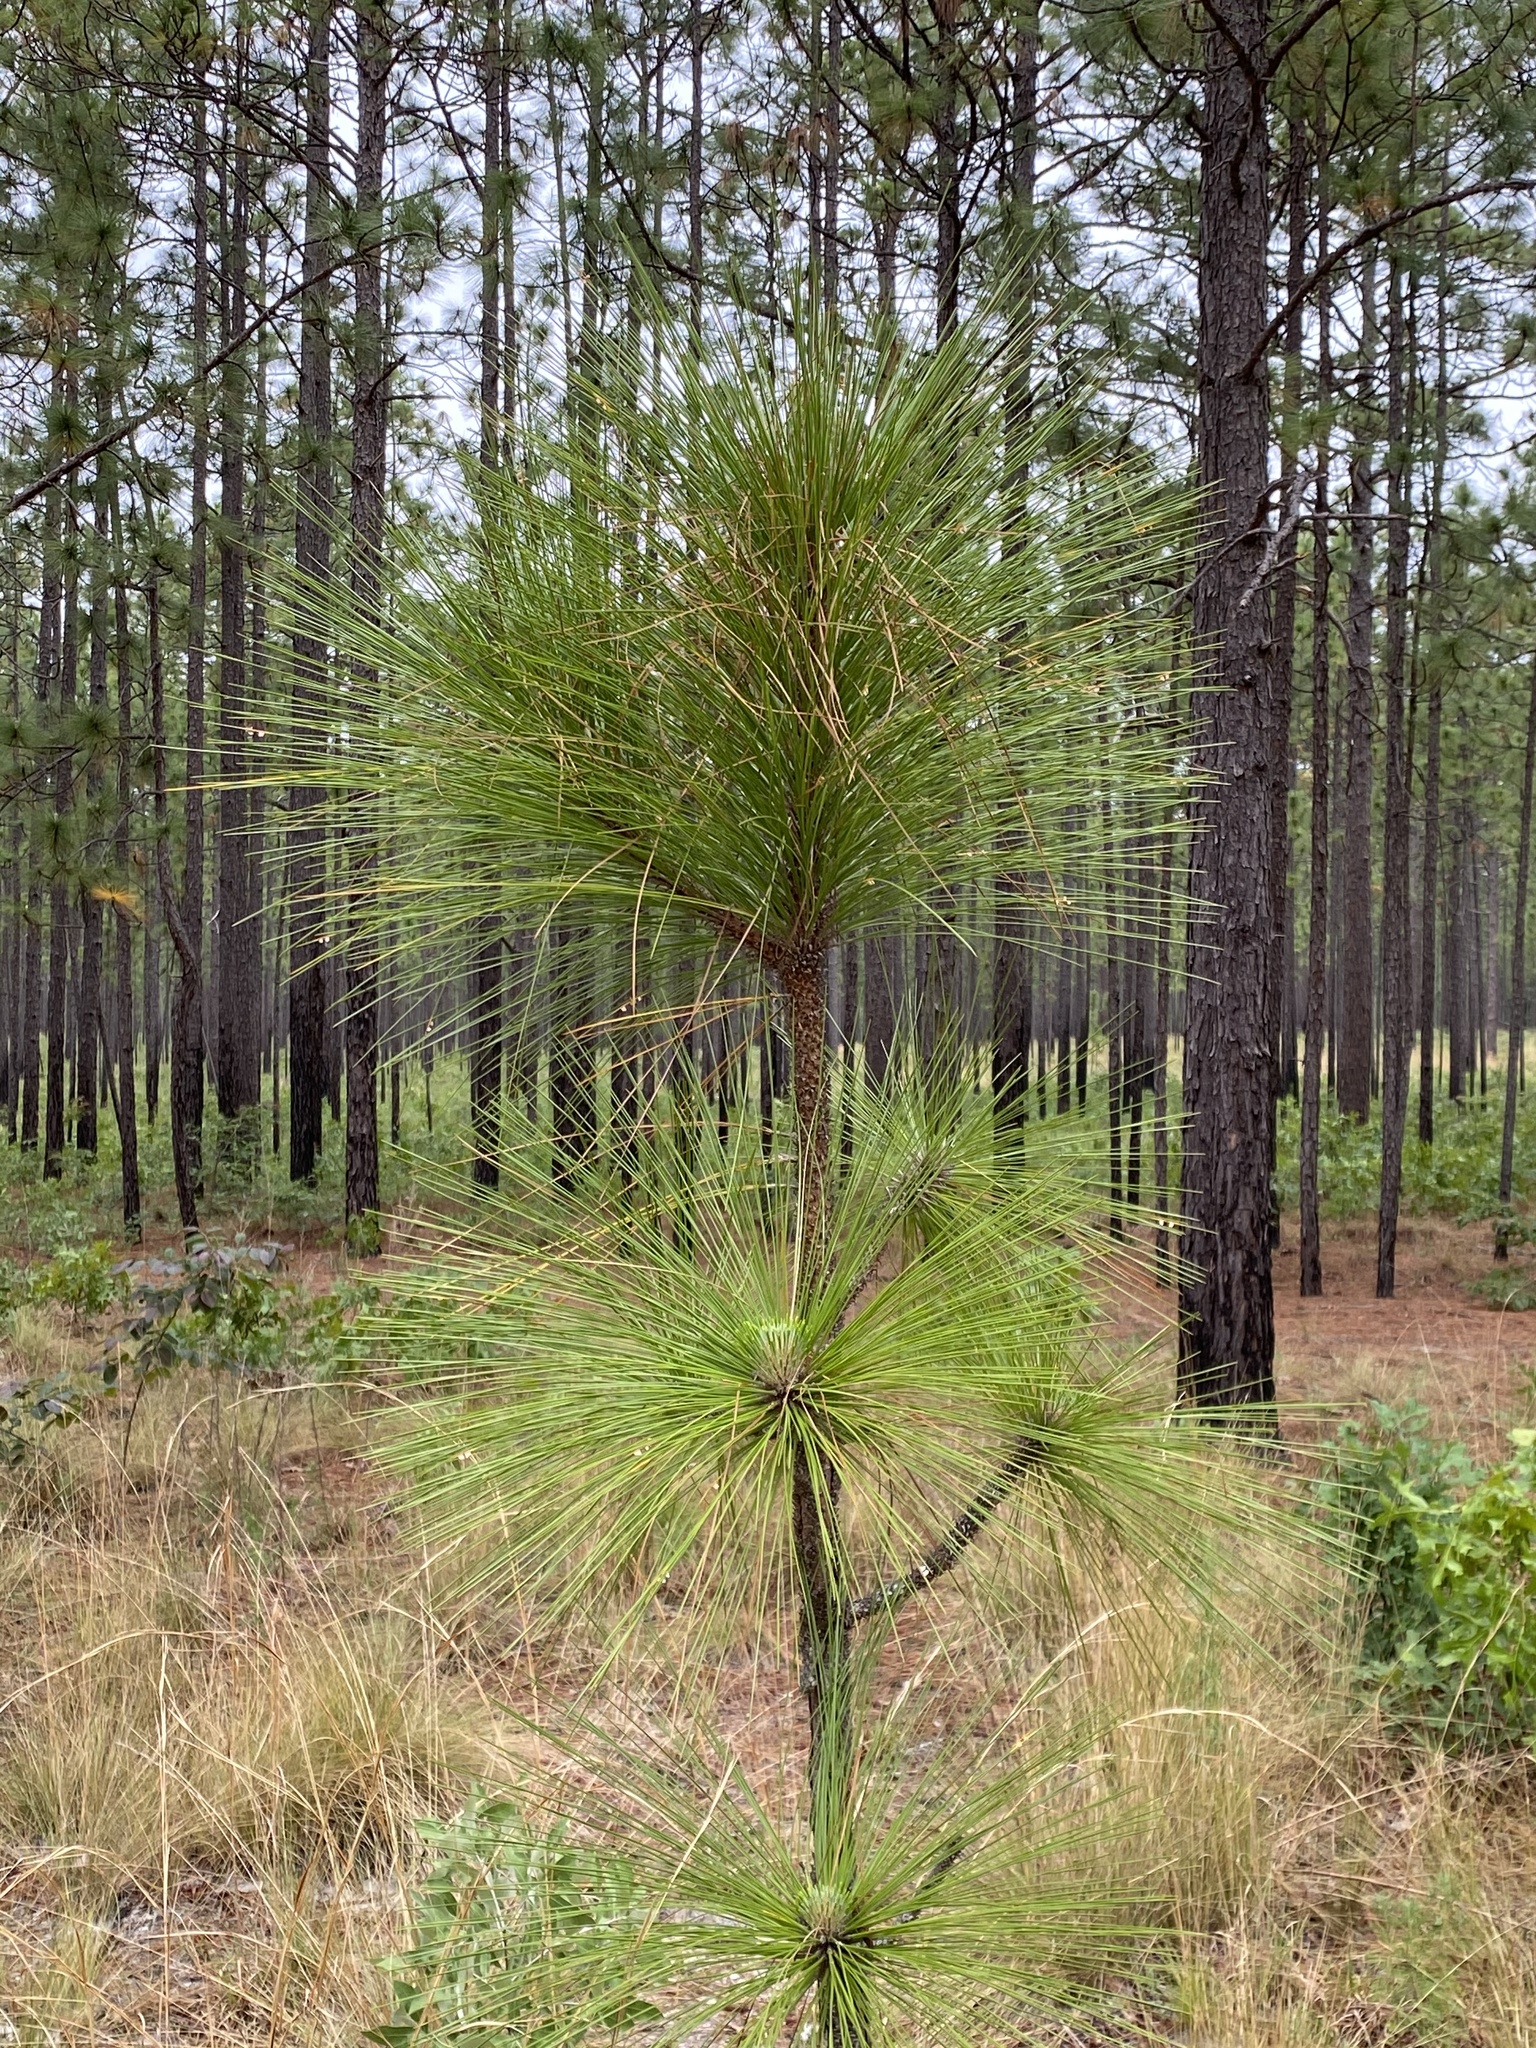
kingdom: Plantae
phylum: Tracheophyta
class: Pinopsida
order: Pinales
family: Pinaceae
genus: Pinus
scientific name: Pinus palustris
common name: Longleaf pine
